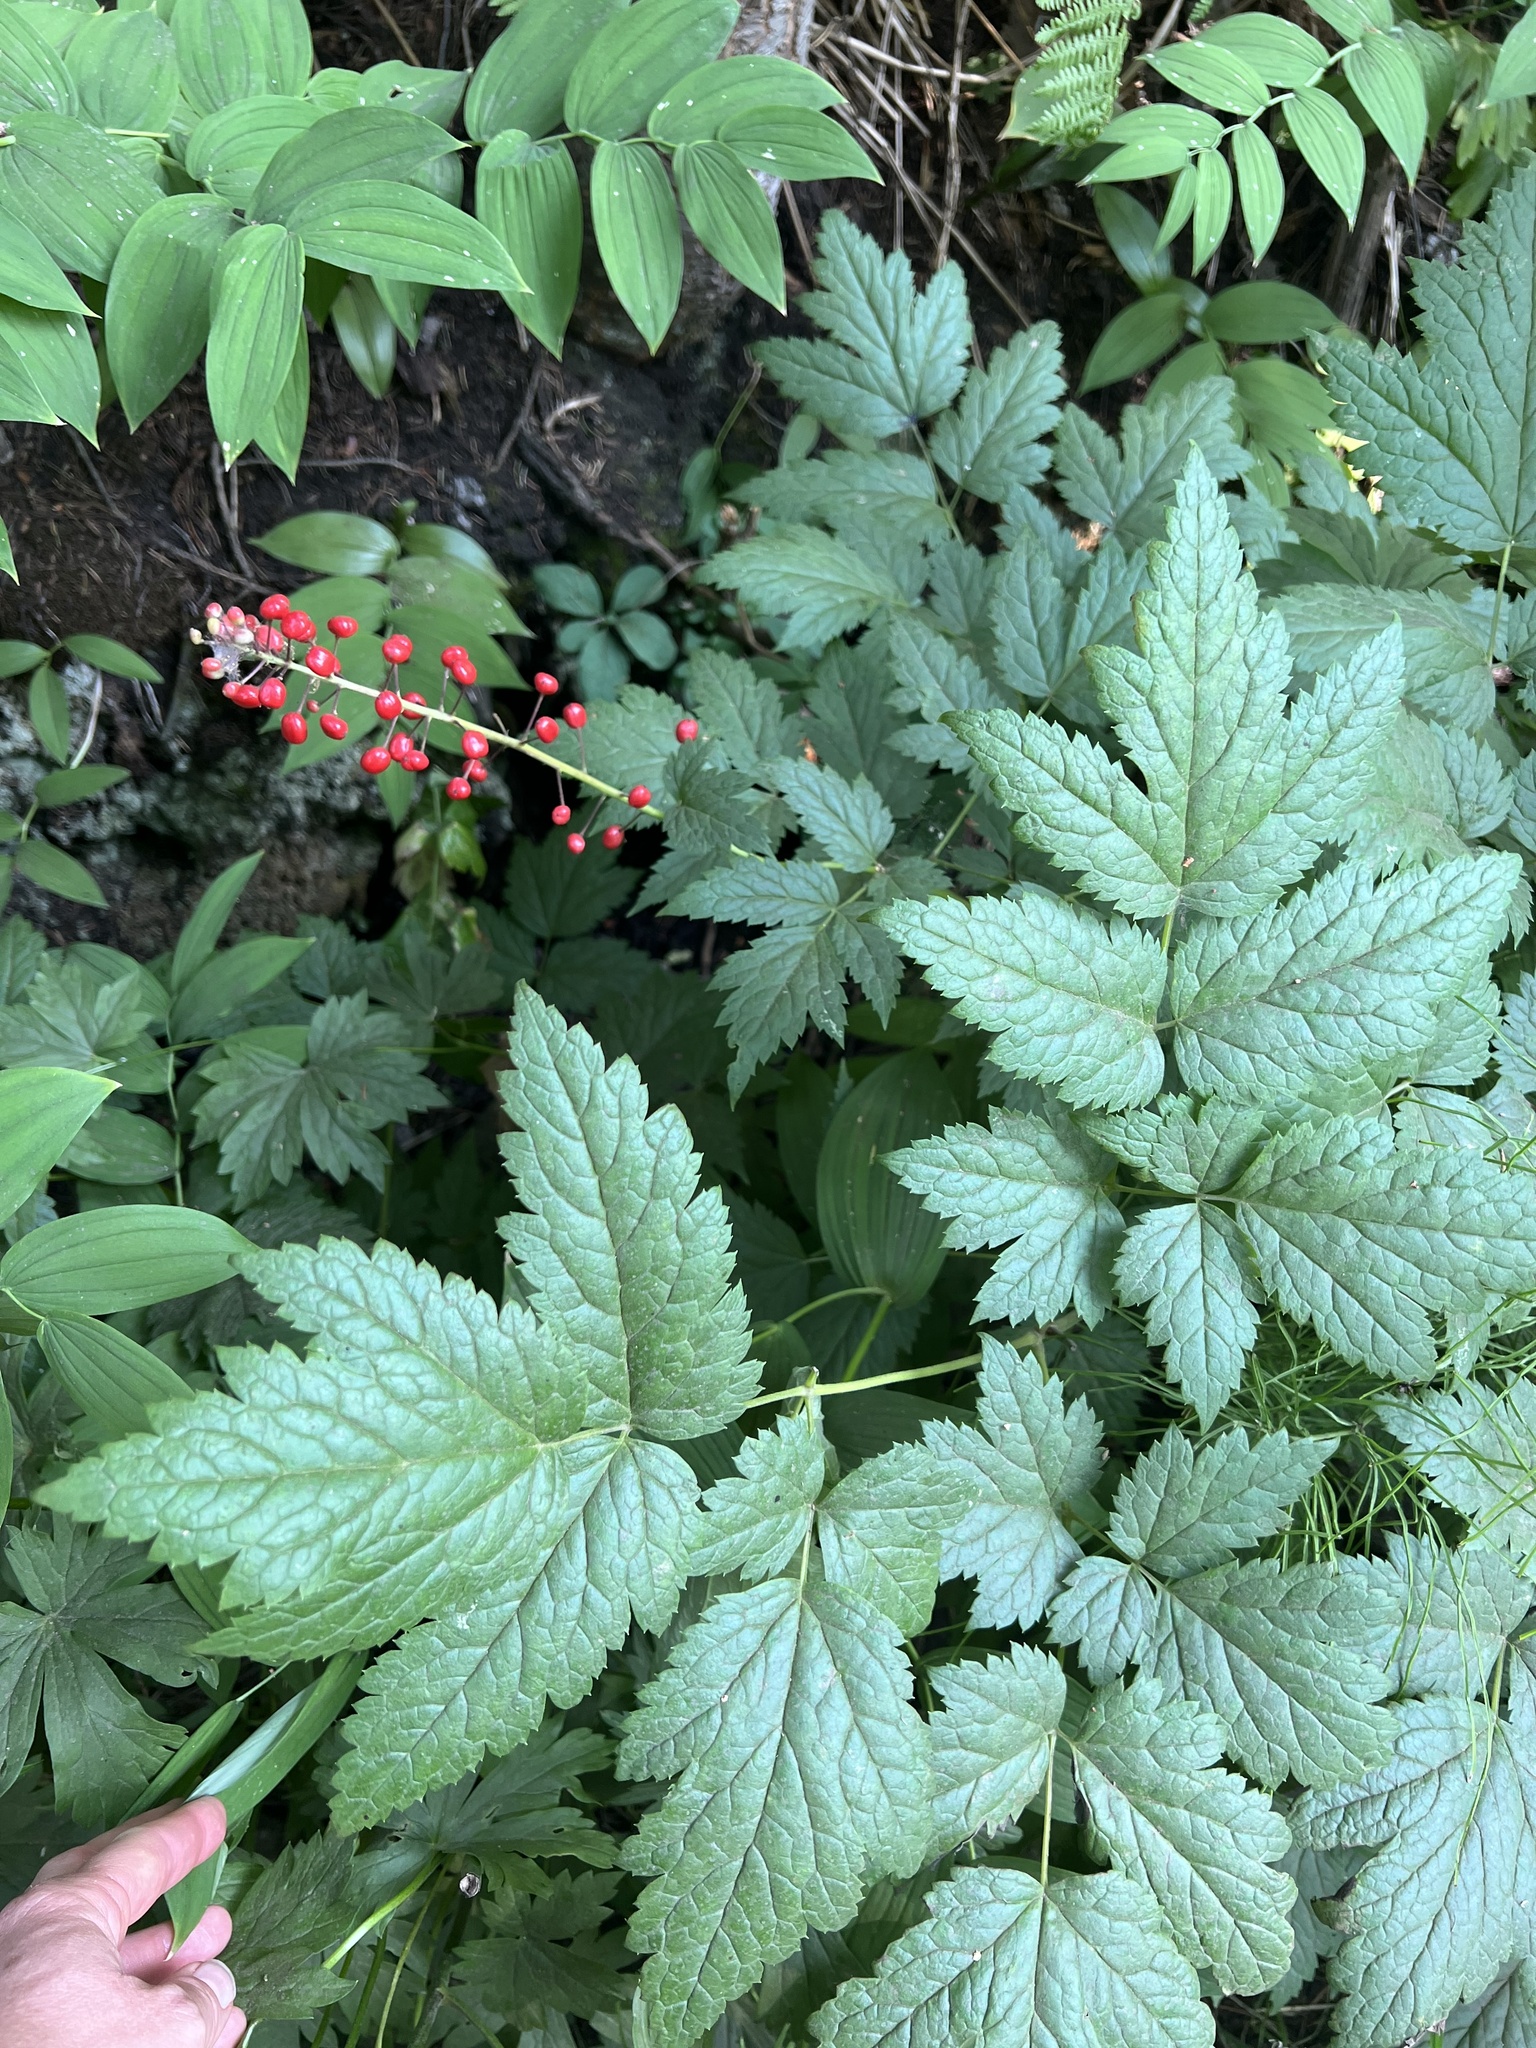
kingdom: Plantae
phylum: Tracheophyta
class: Magnoliopsida
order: Ranunculales
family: Ranunculaceae
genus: Actaea
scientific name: Actaea rubra
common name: Red baneberry
